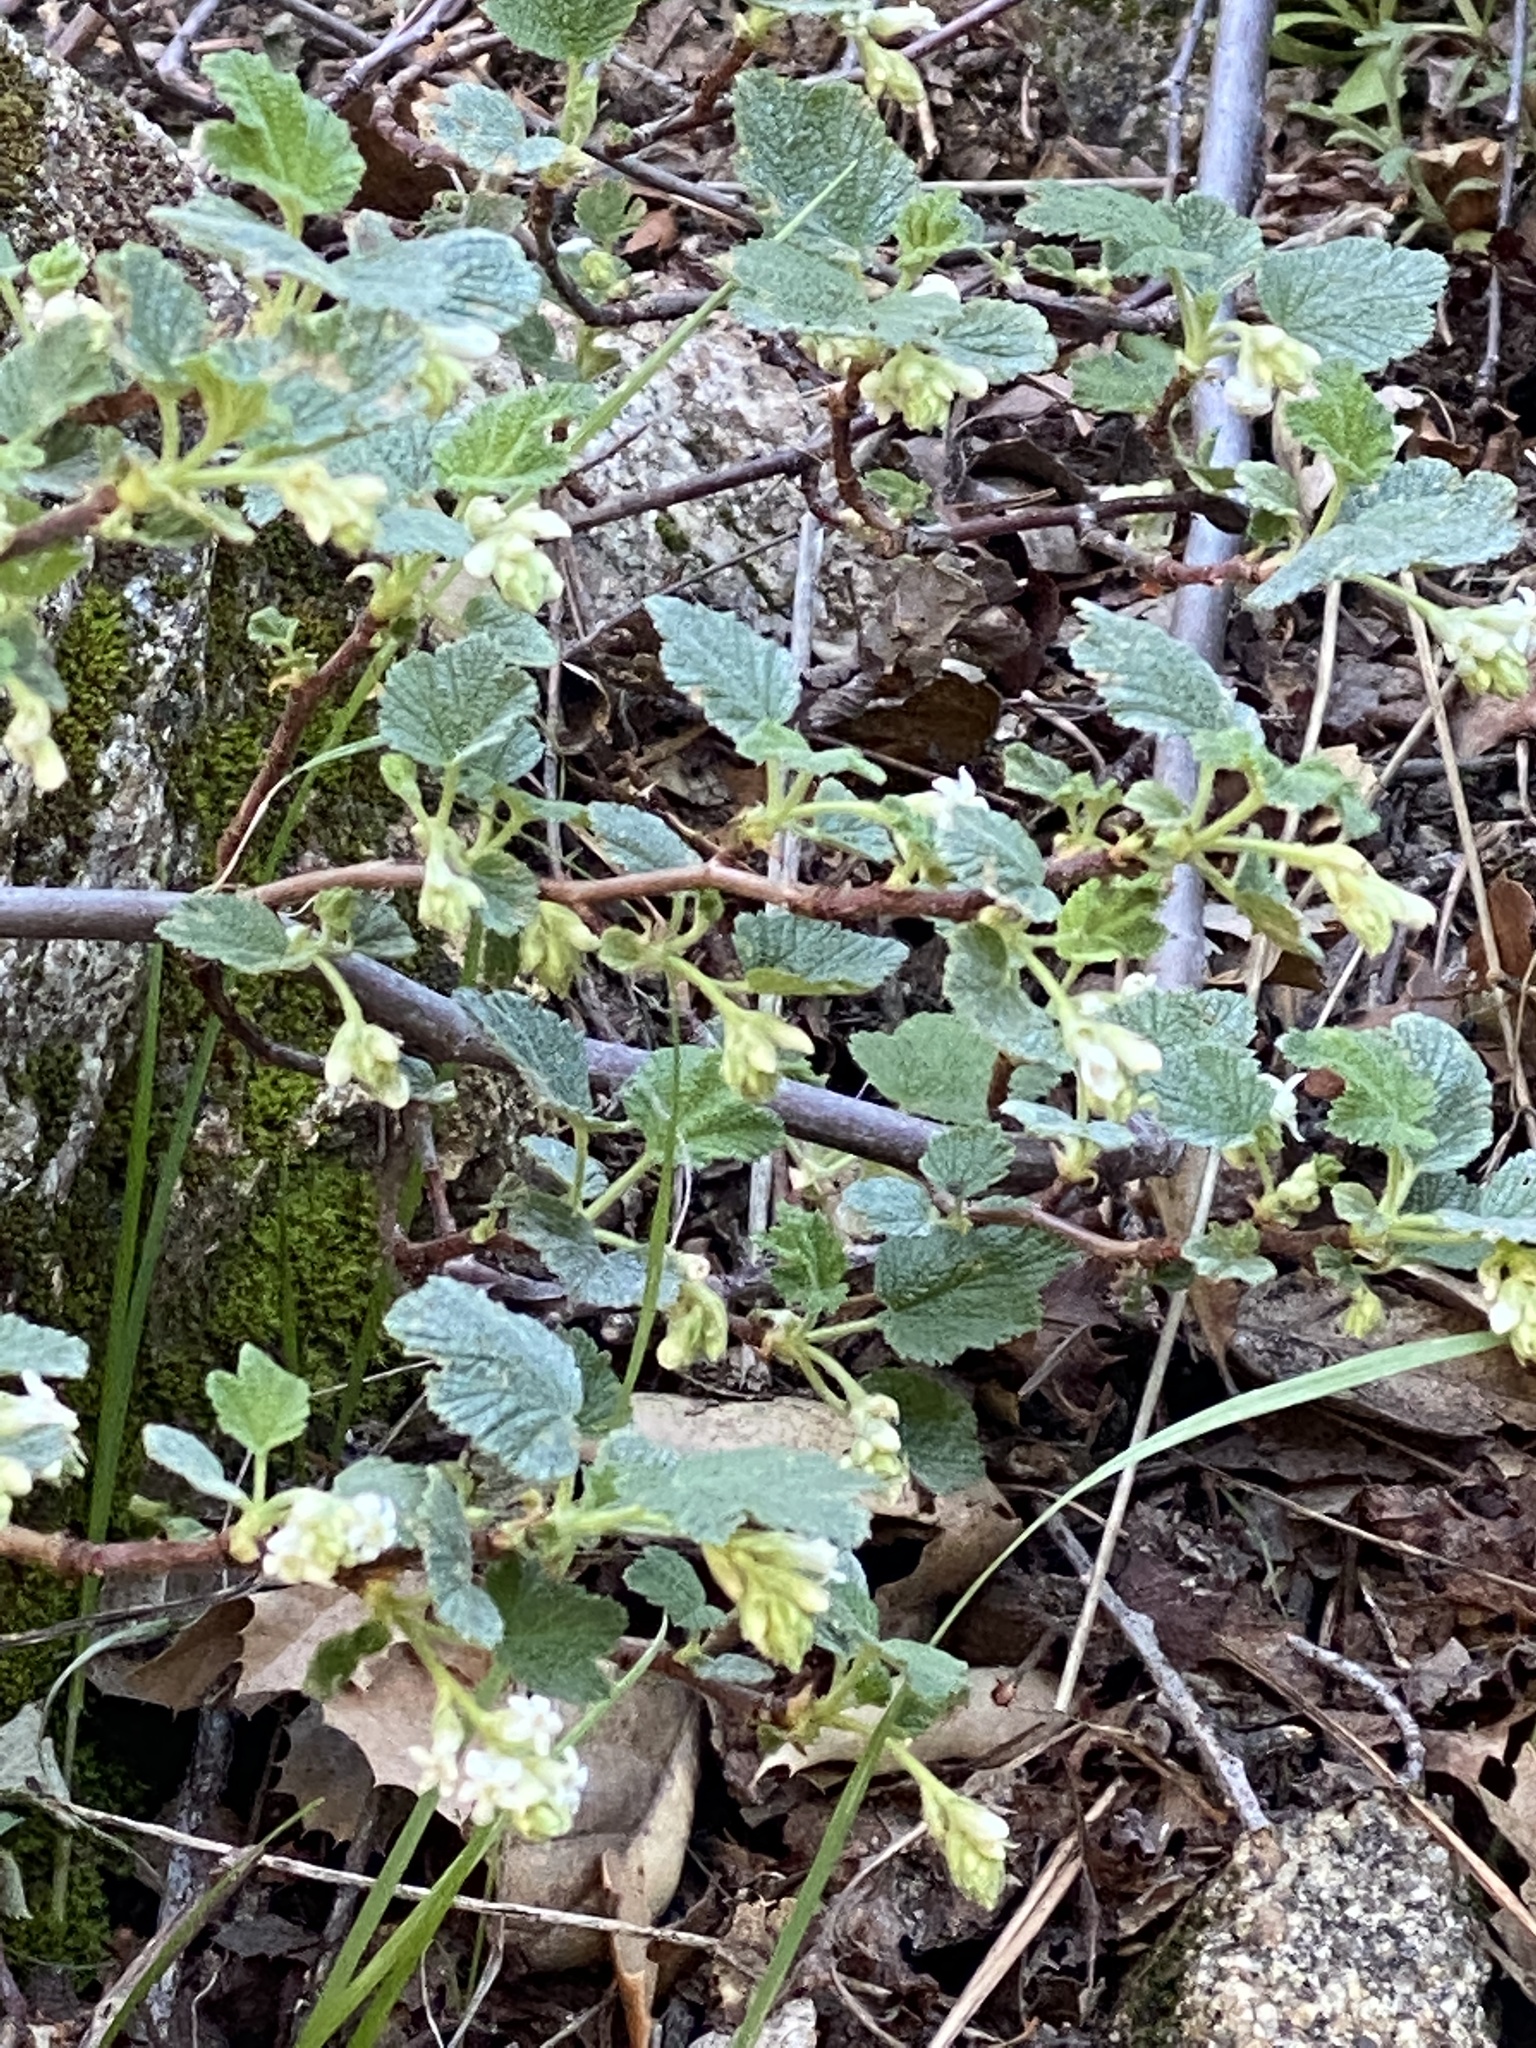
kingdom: Plantae
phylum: Tracheophyta
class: Magnoliopsida
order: Saxifragales
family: Grossulariaceae
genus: Ribes
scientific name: Ribes indecorum
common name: White-flower currant
